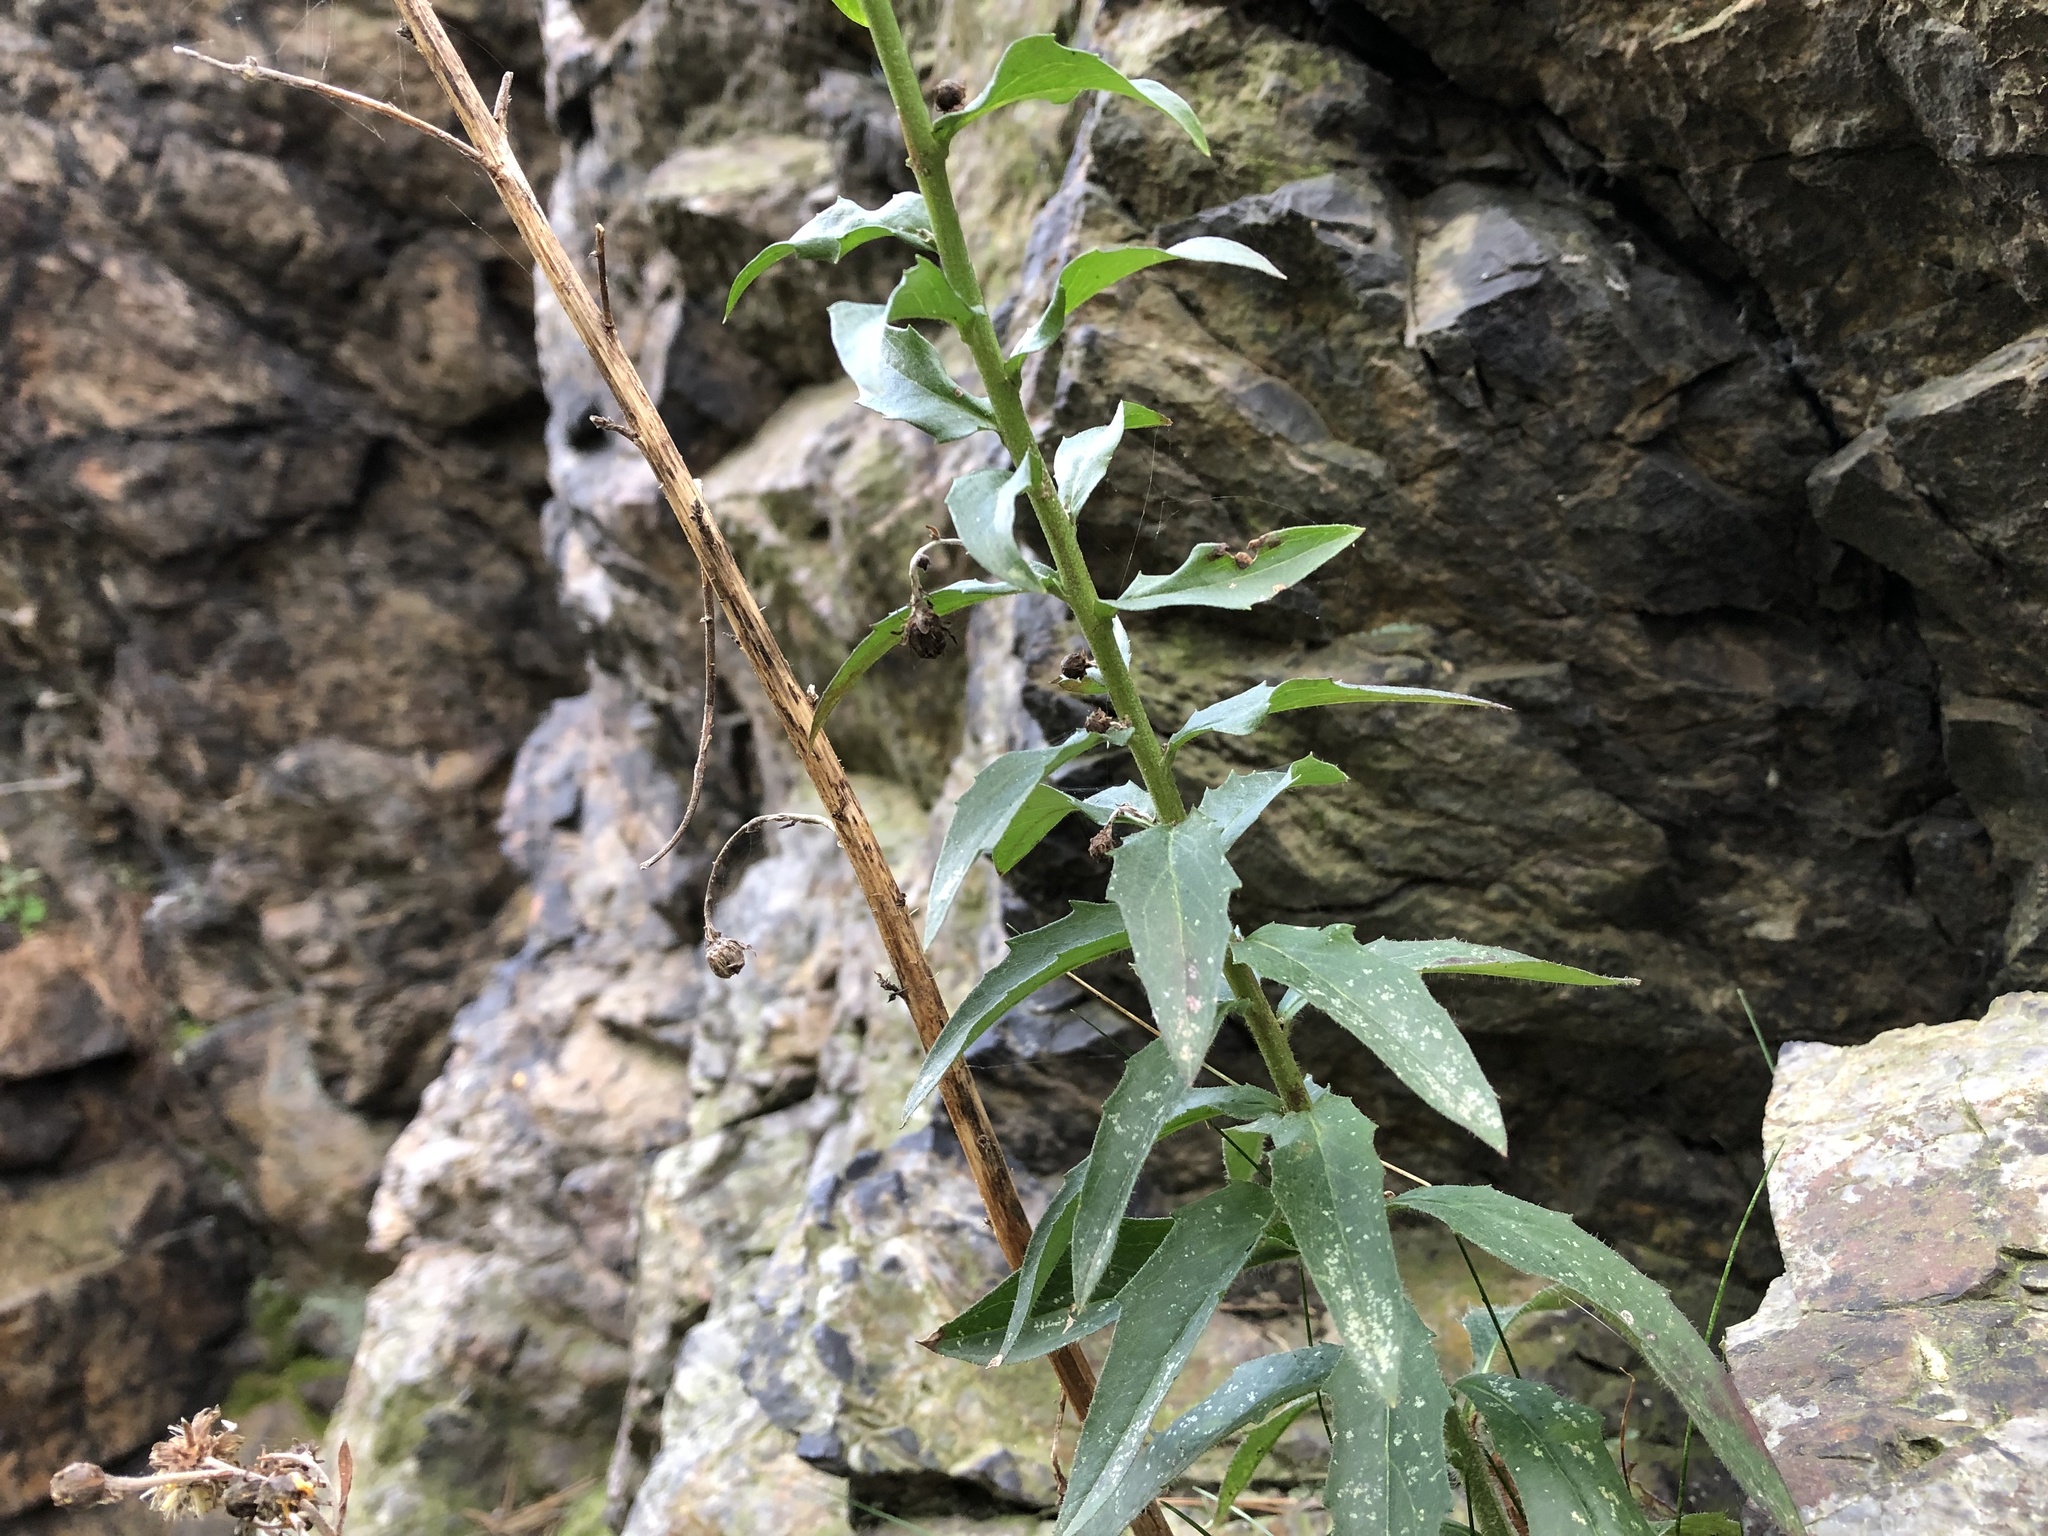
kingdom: Plantae
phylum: Tracheophyta
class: Magnoliopsida
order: Asterales
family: Asteraceae
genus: Hieracium
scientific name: Hieracium sabaudum
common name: New england hawkweed
